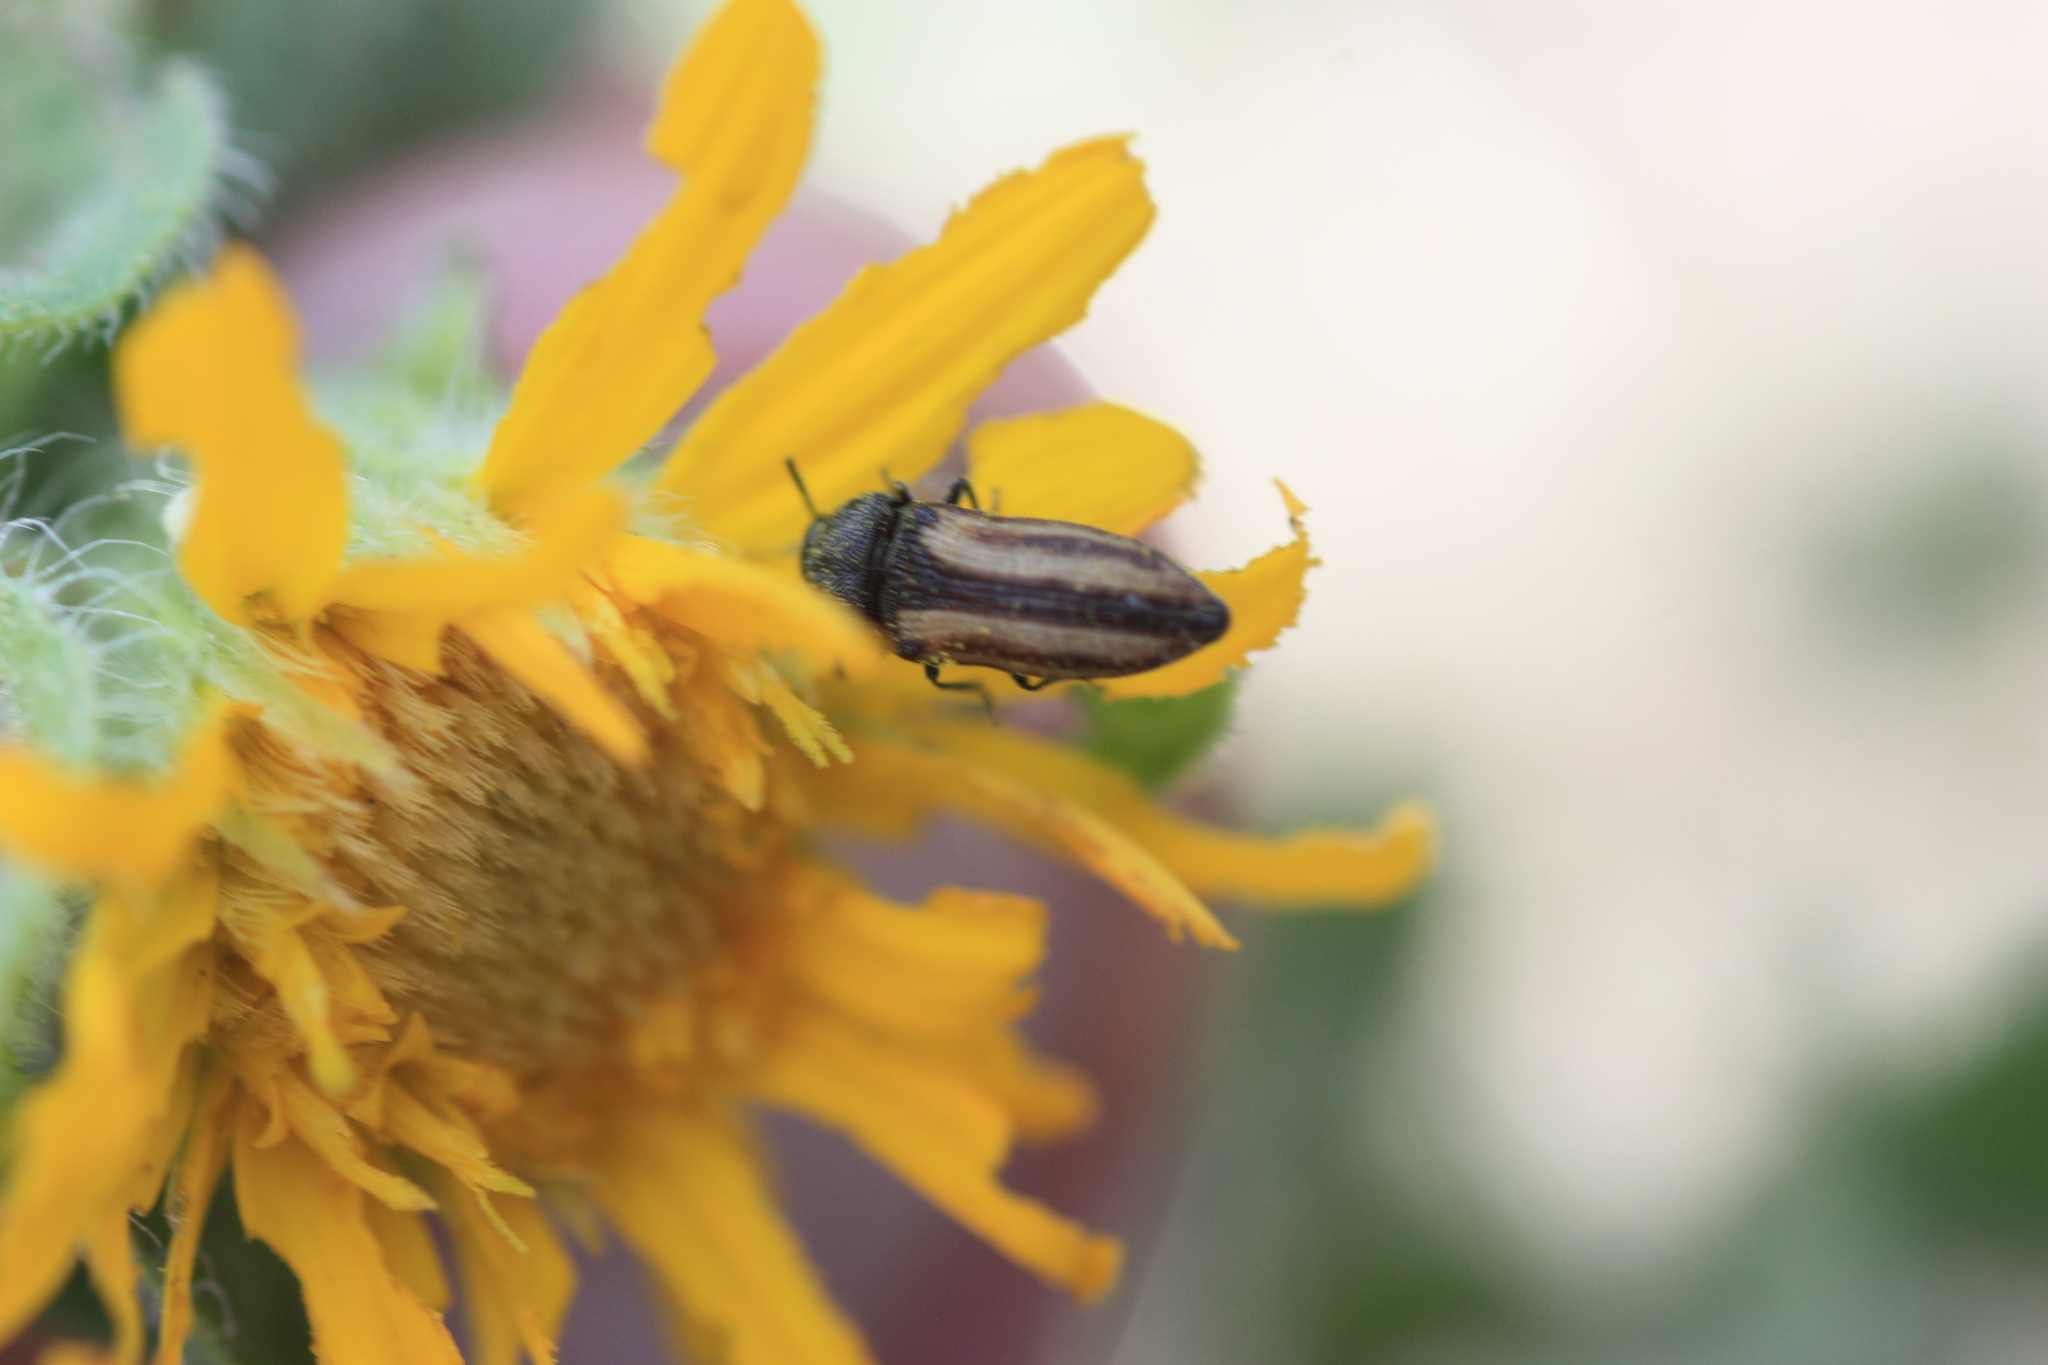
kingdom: Animalia
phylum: Arthropoda
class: Insecta
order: Coleoptera
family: Buprestidae
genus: Acmaeodera
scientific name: Acmaeodera quadrivittatoides
